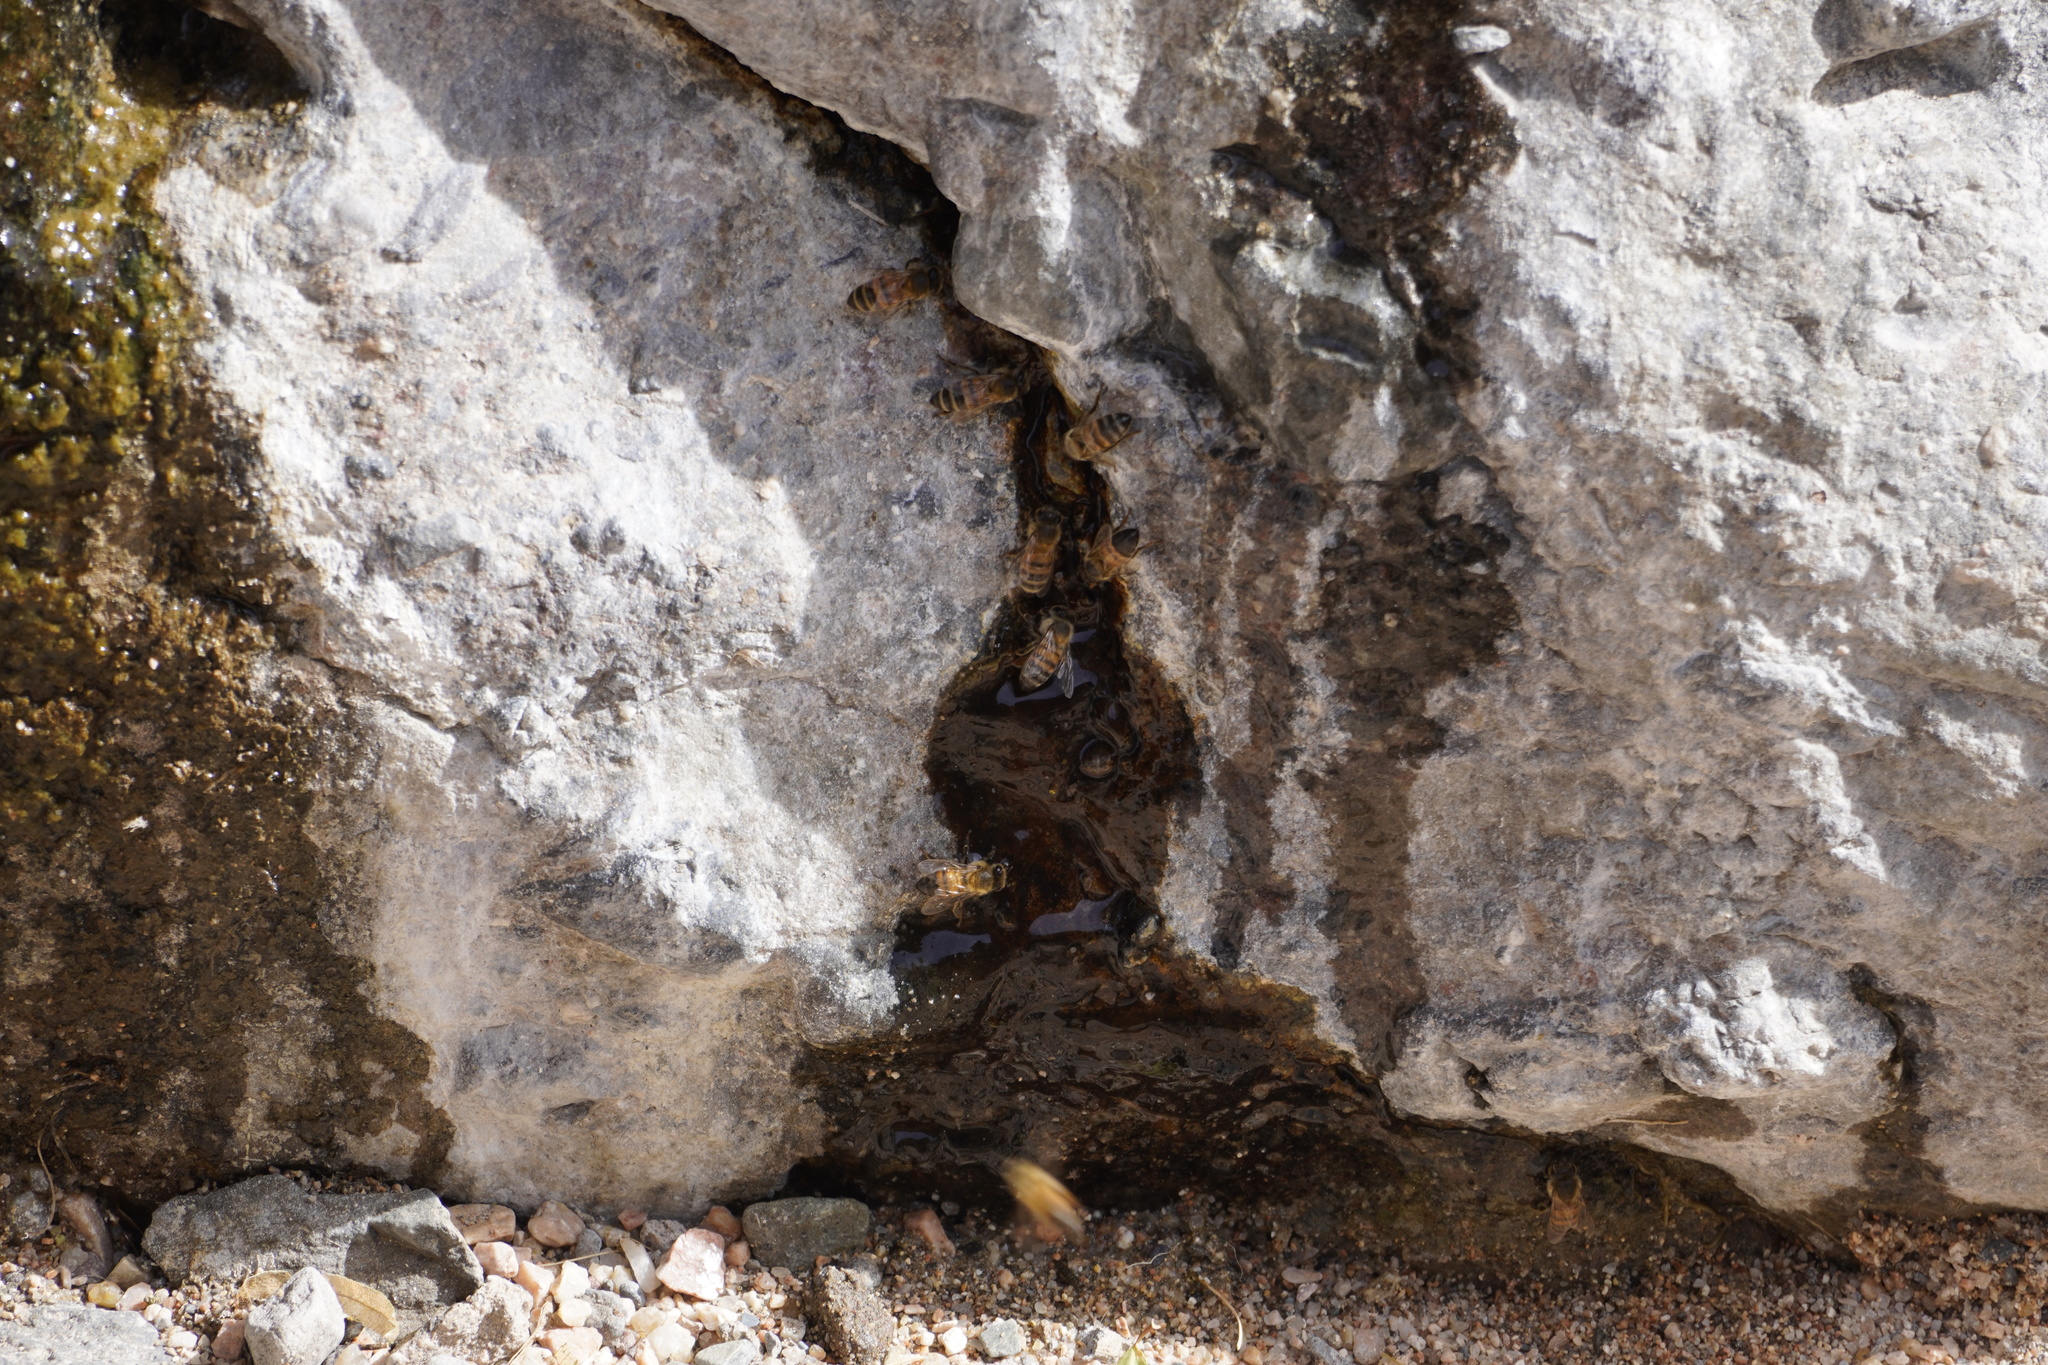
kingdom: Animalia
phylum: Arthropoda
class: Insecta
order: Hymenoptera
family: Apidae
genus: Apis
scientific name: Apis mellifera
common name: Honey bee
